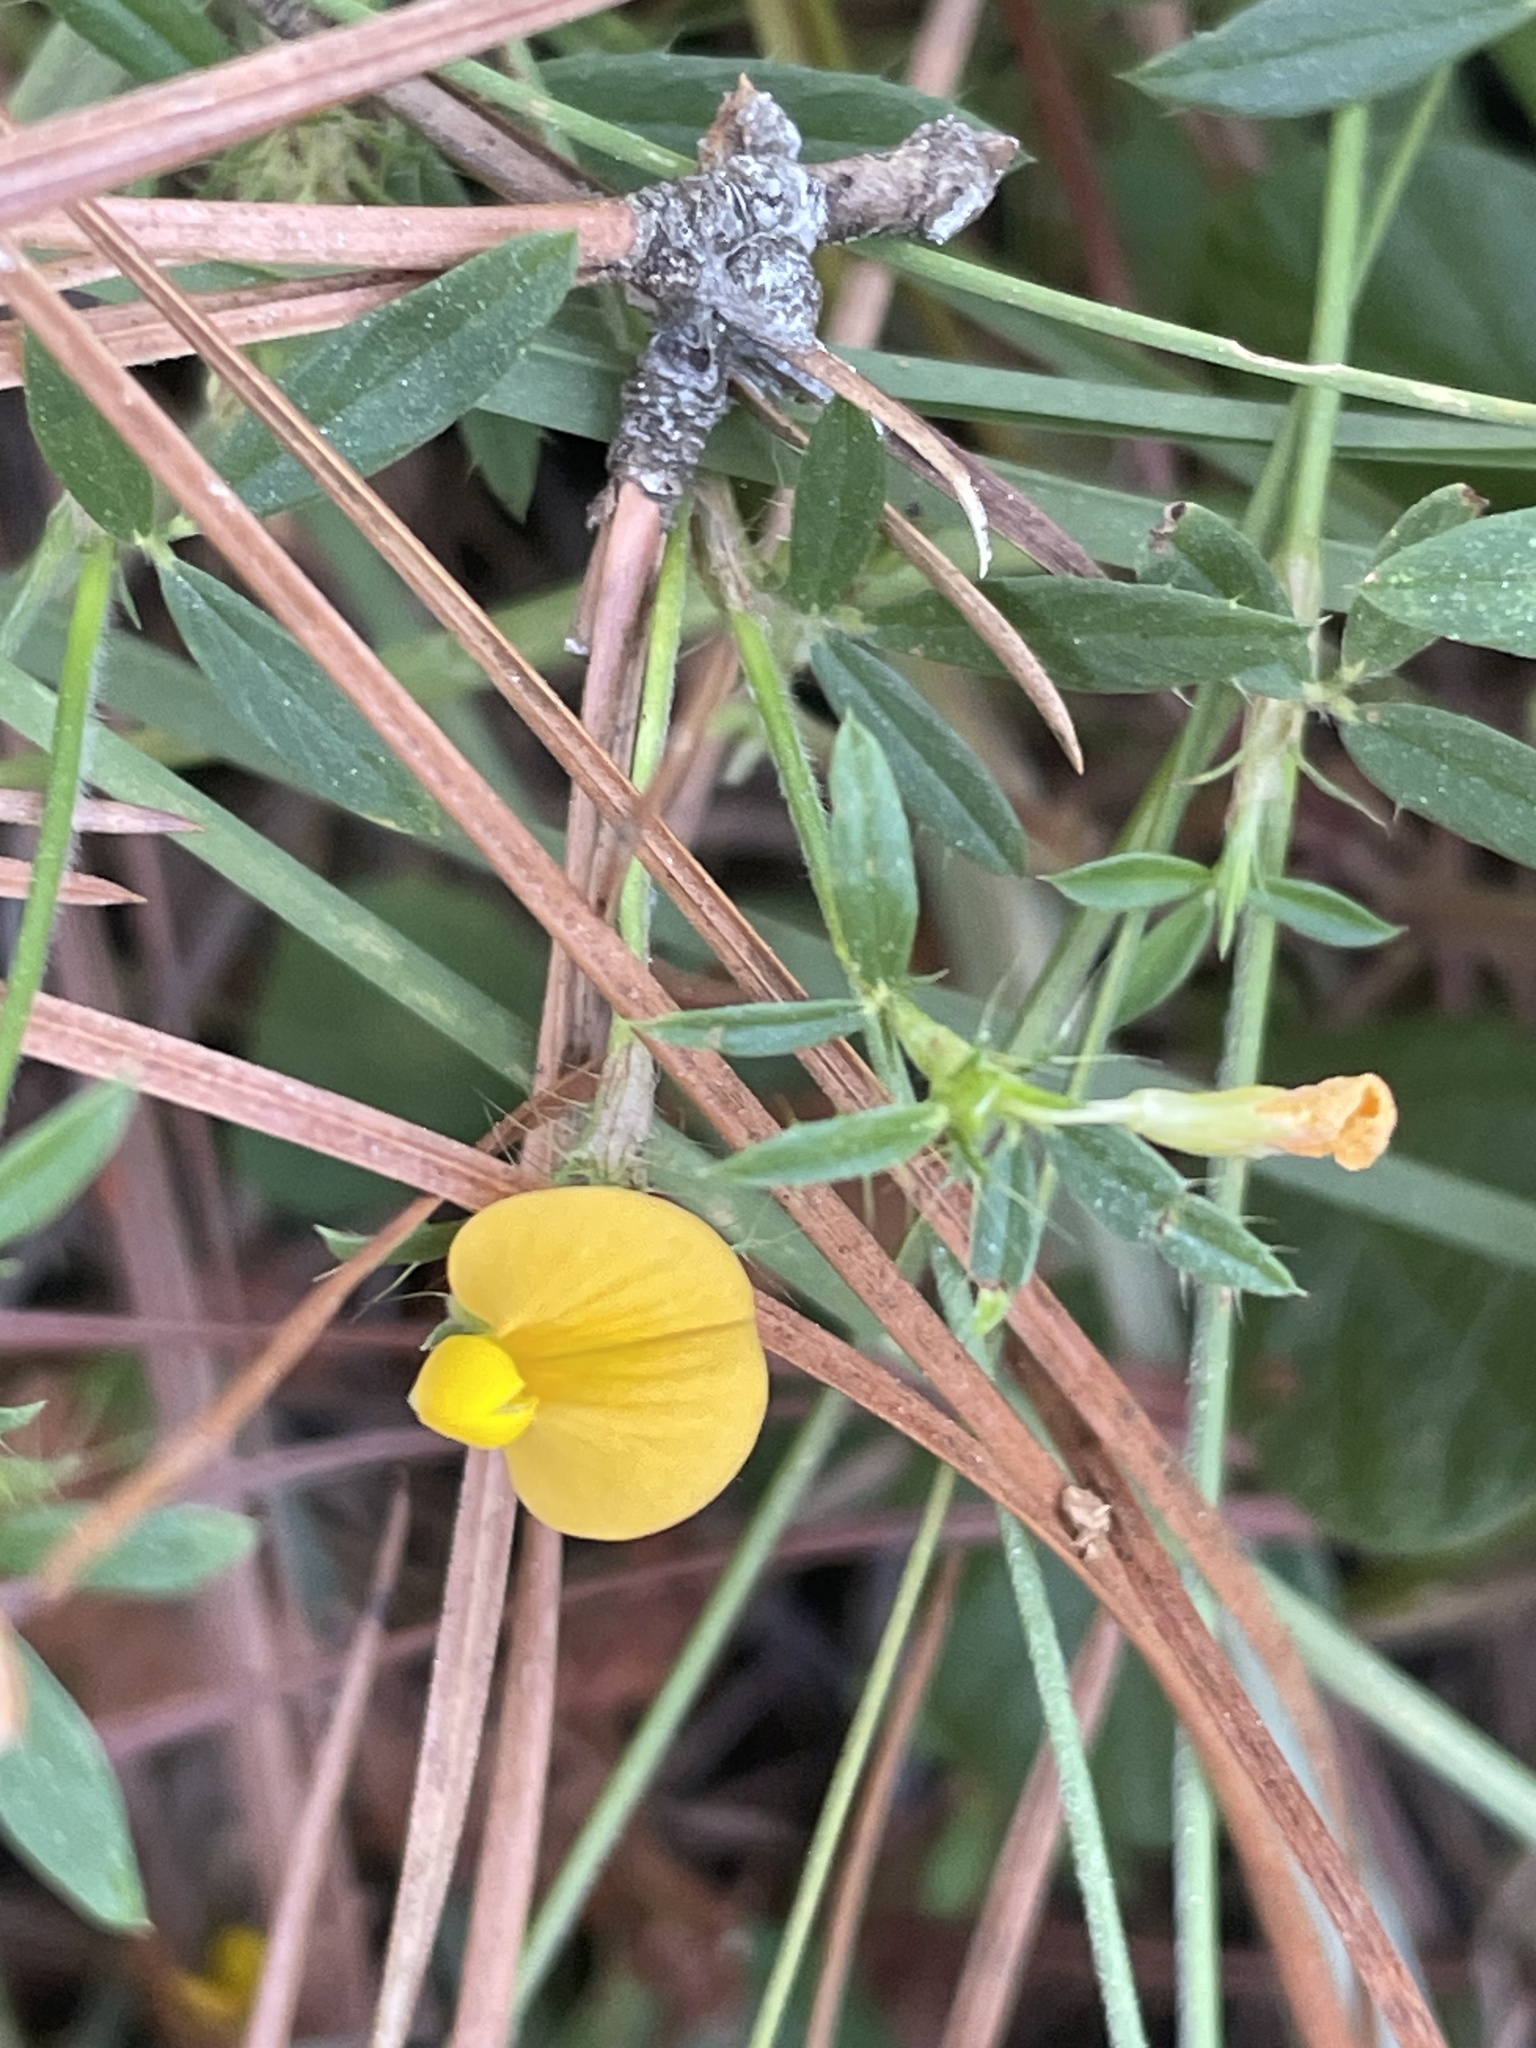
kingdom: Plantae
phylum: Tracheophyta
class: Magnoliopsida
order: Fabales
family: Fabaceae
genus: Stylosanthes
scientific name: Stylosanthes biflora
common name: Two-flower pencil-flower
